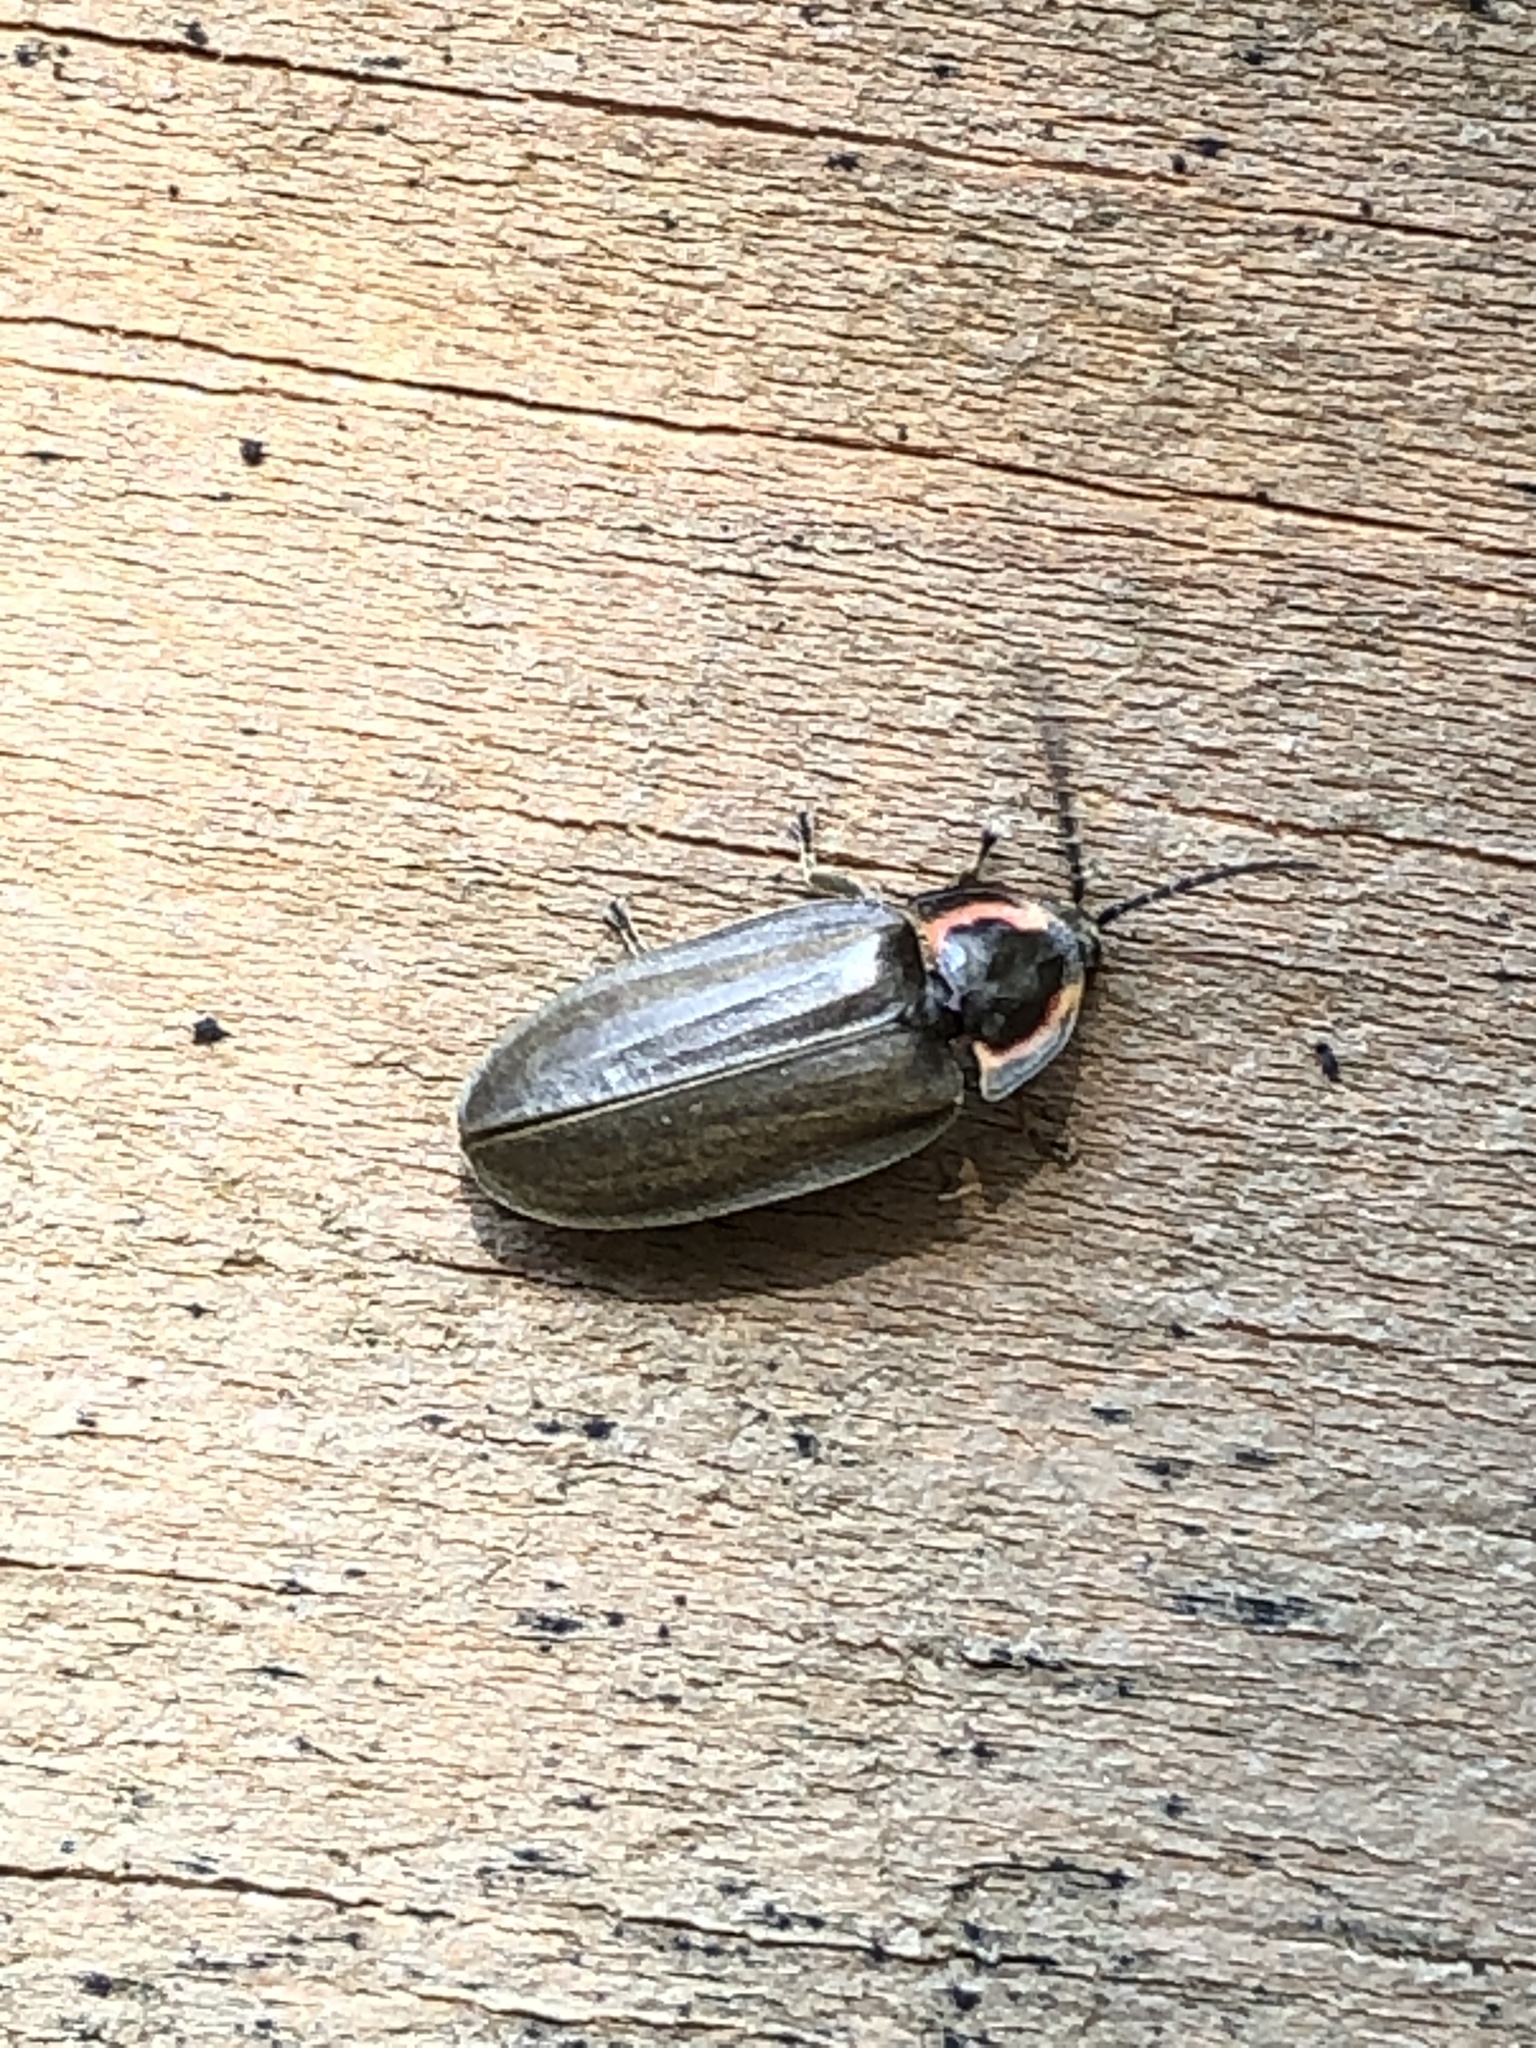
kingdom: Animalia
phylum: Arthropoda
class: Insecta
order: Coleoptera
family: Lampyridae
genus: Photinus
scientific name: Photinus corrusca
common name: Winter firefly
